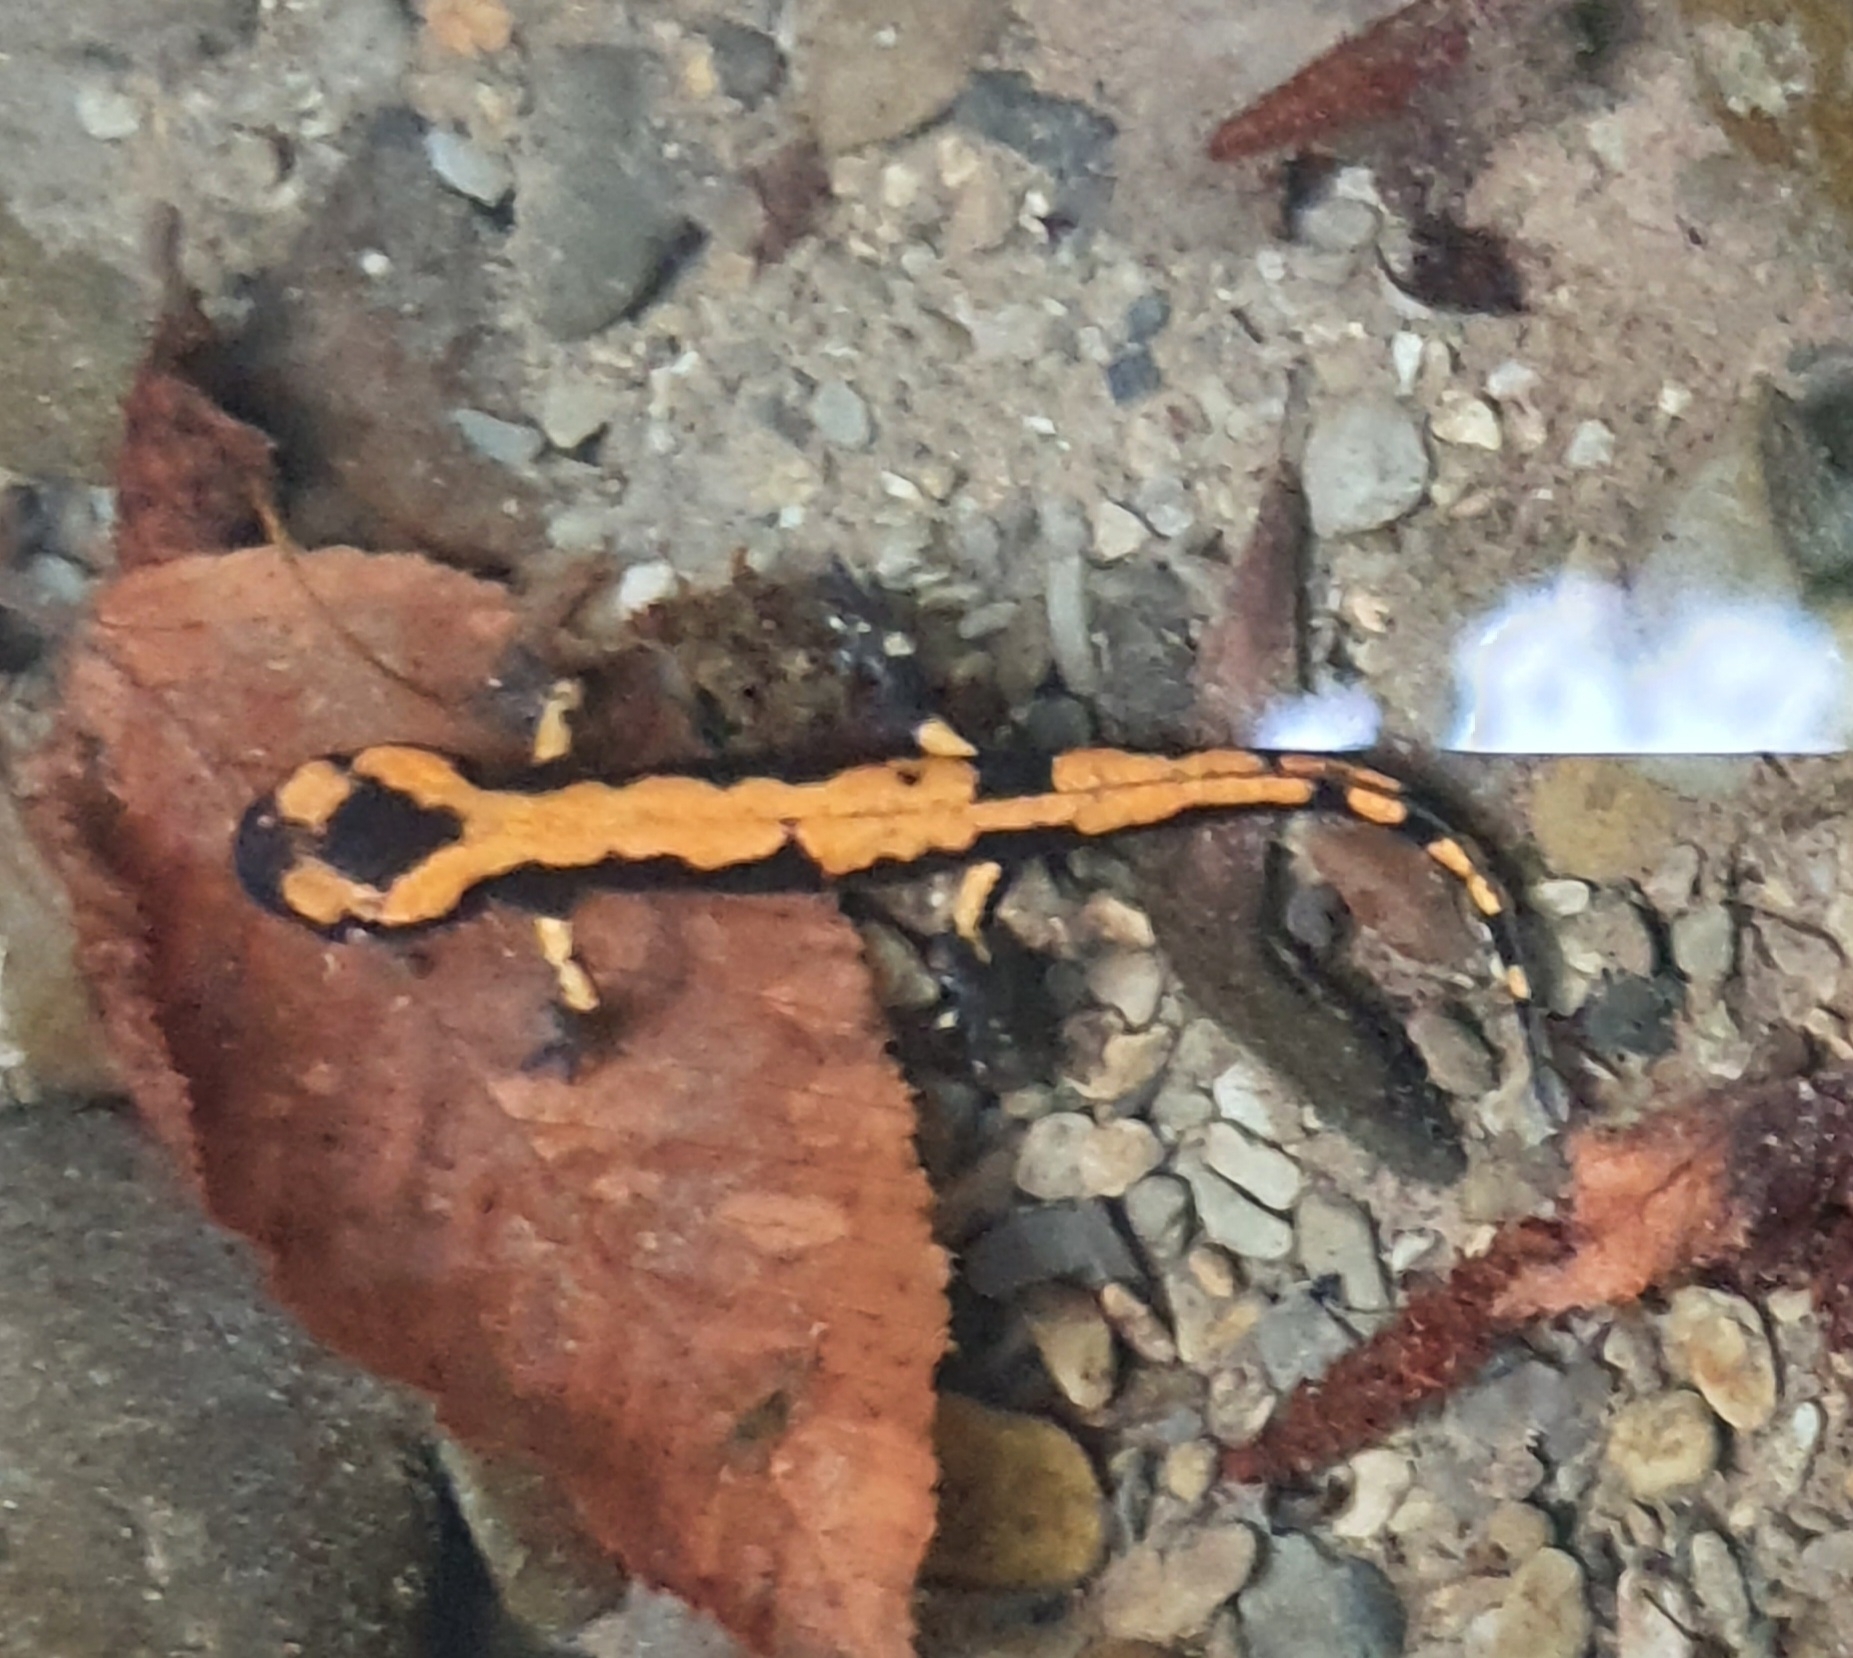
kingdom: Animalia
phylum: Chordata
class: Amphibia
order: Caudata
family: Salamandridae
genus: Salamandra
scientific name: Salamandra salamandra
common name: Fire salamander
